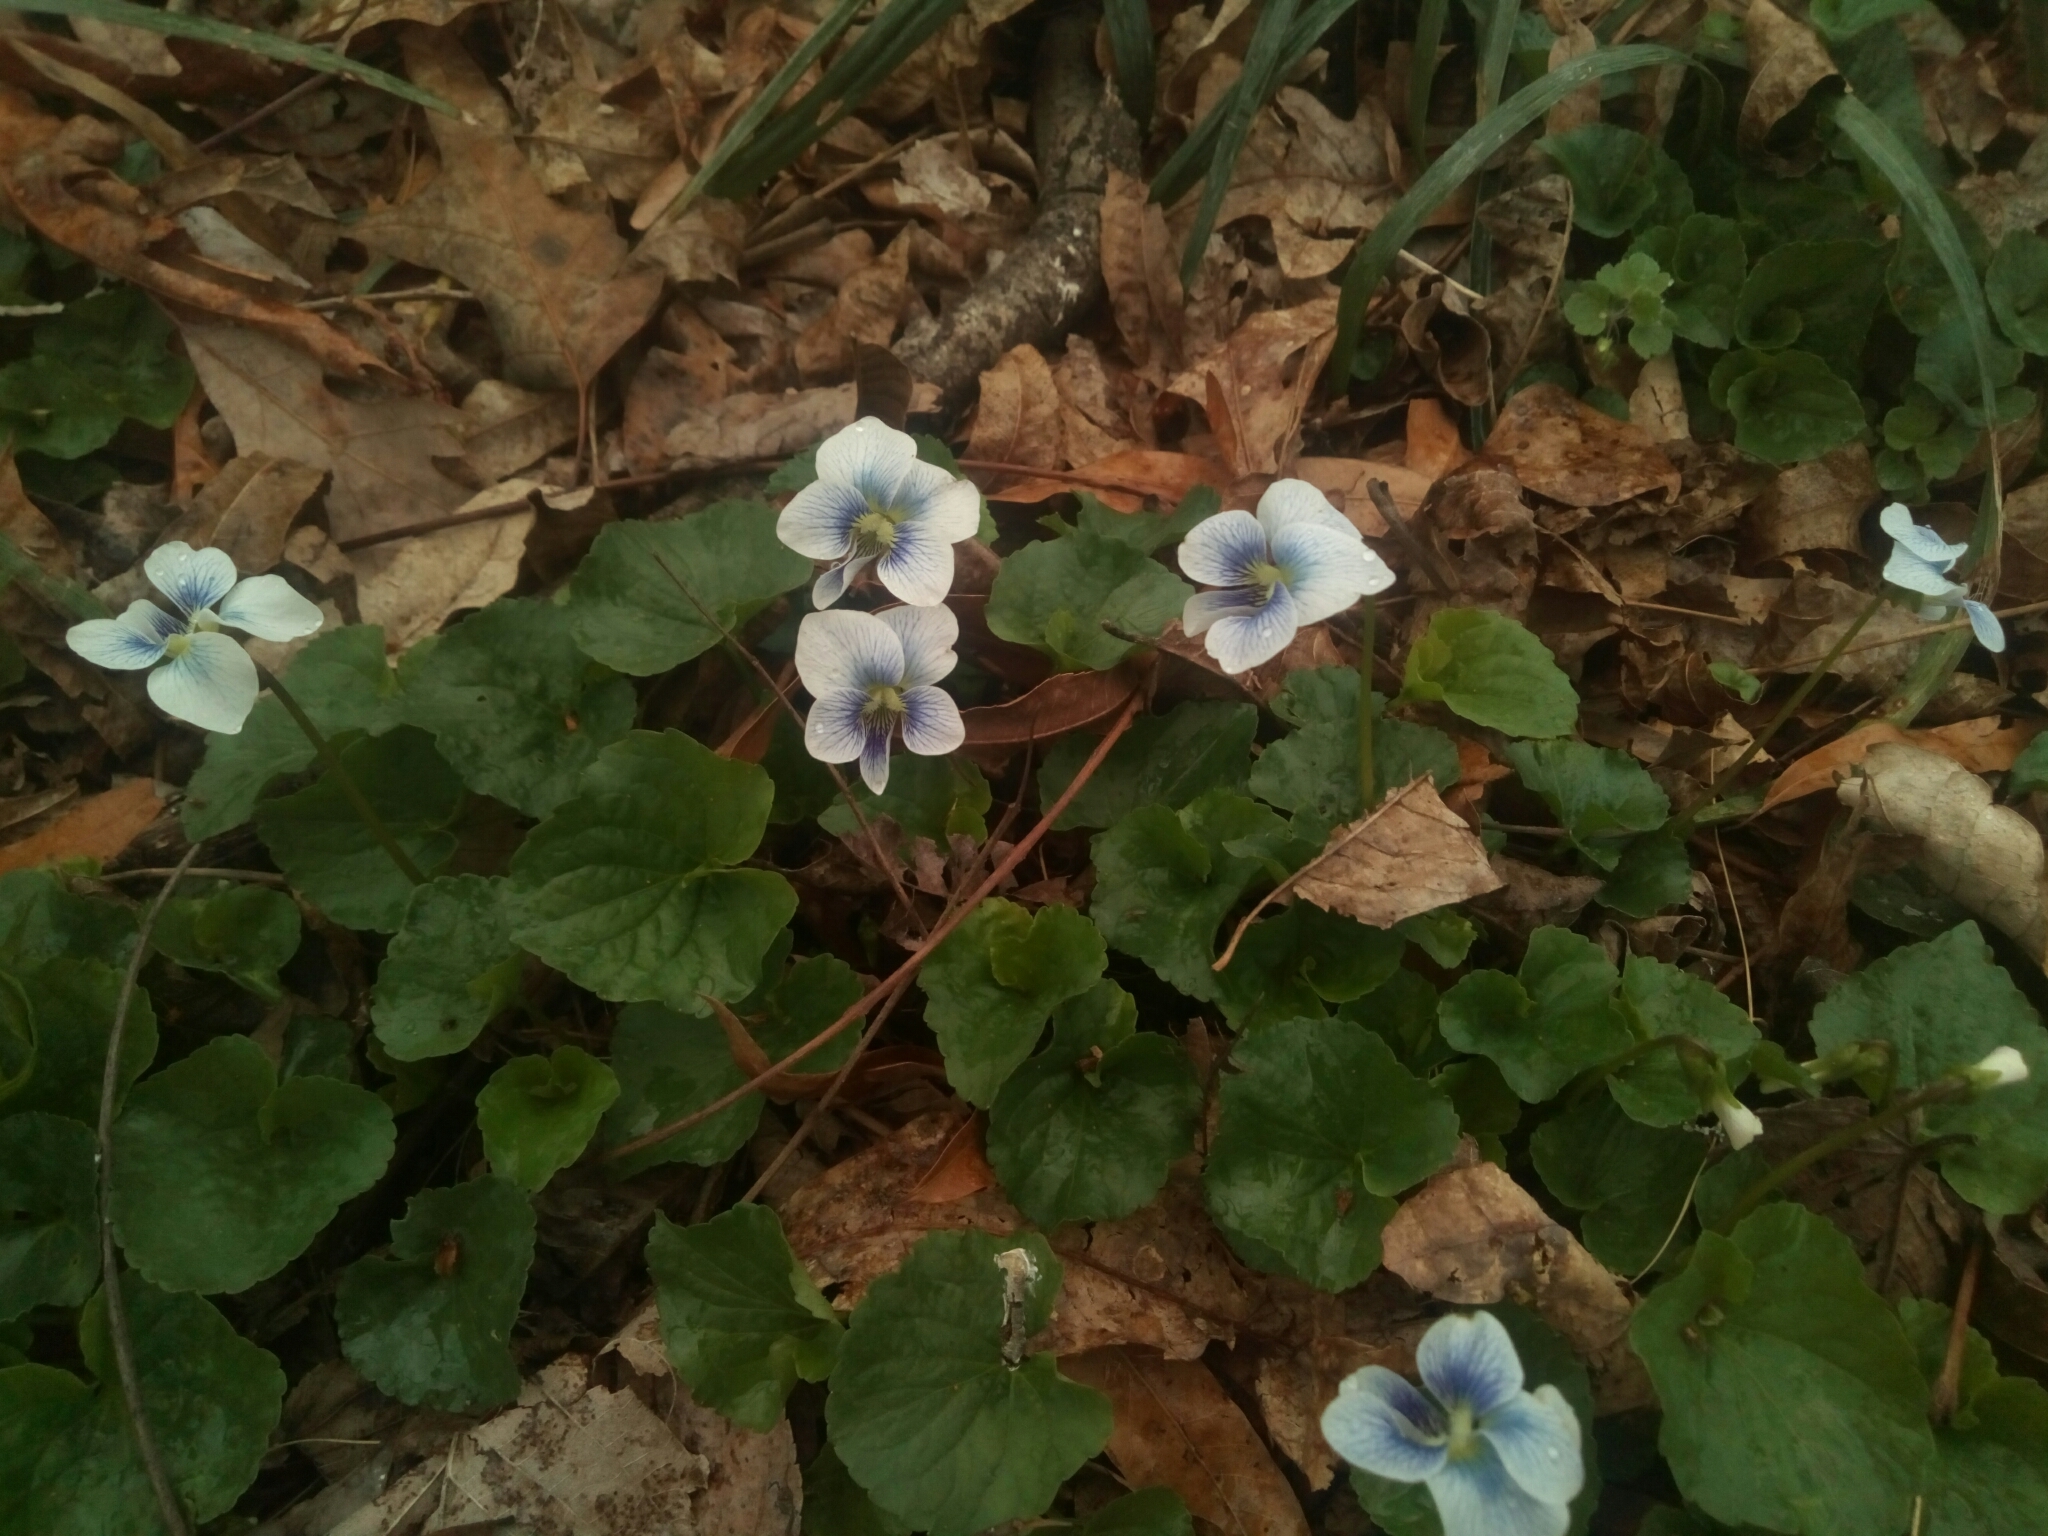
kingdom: Plantae
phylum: Tracheophyta
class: Magnoliopsida
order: Malpighiales
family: Violaceae
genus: Viola
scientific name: Viola sororia
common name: Dooryard violet
